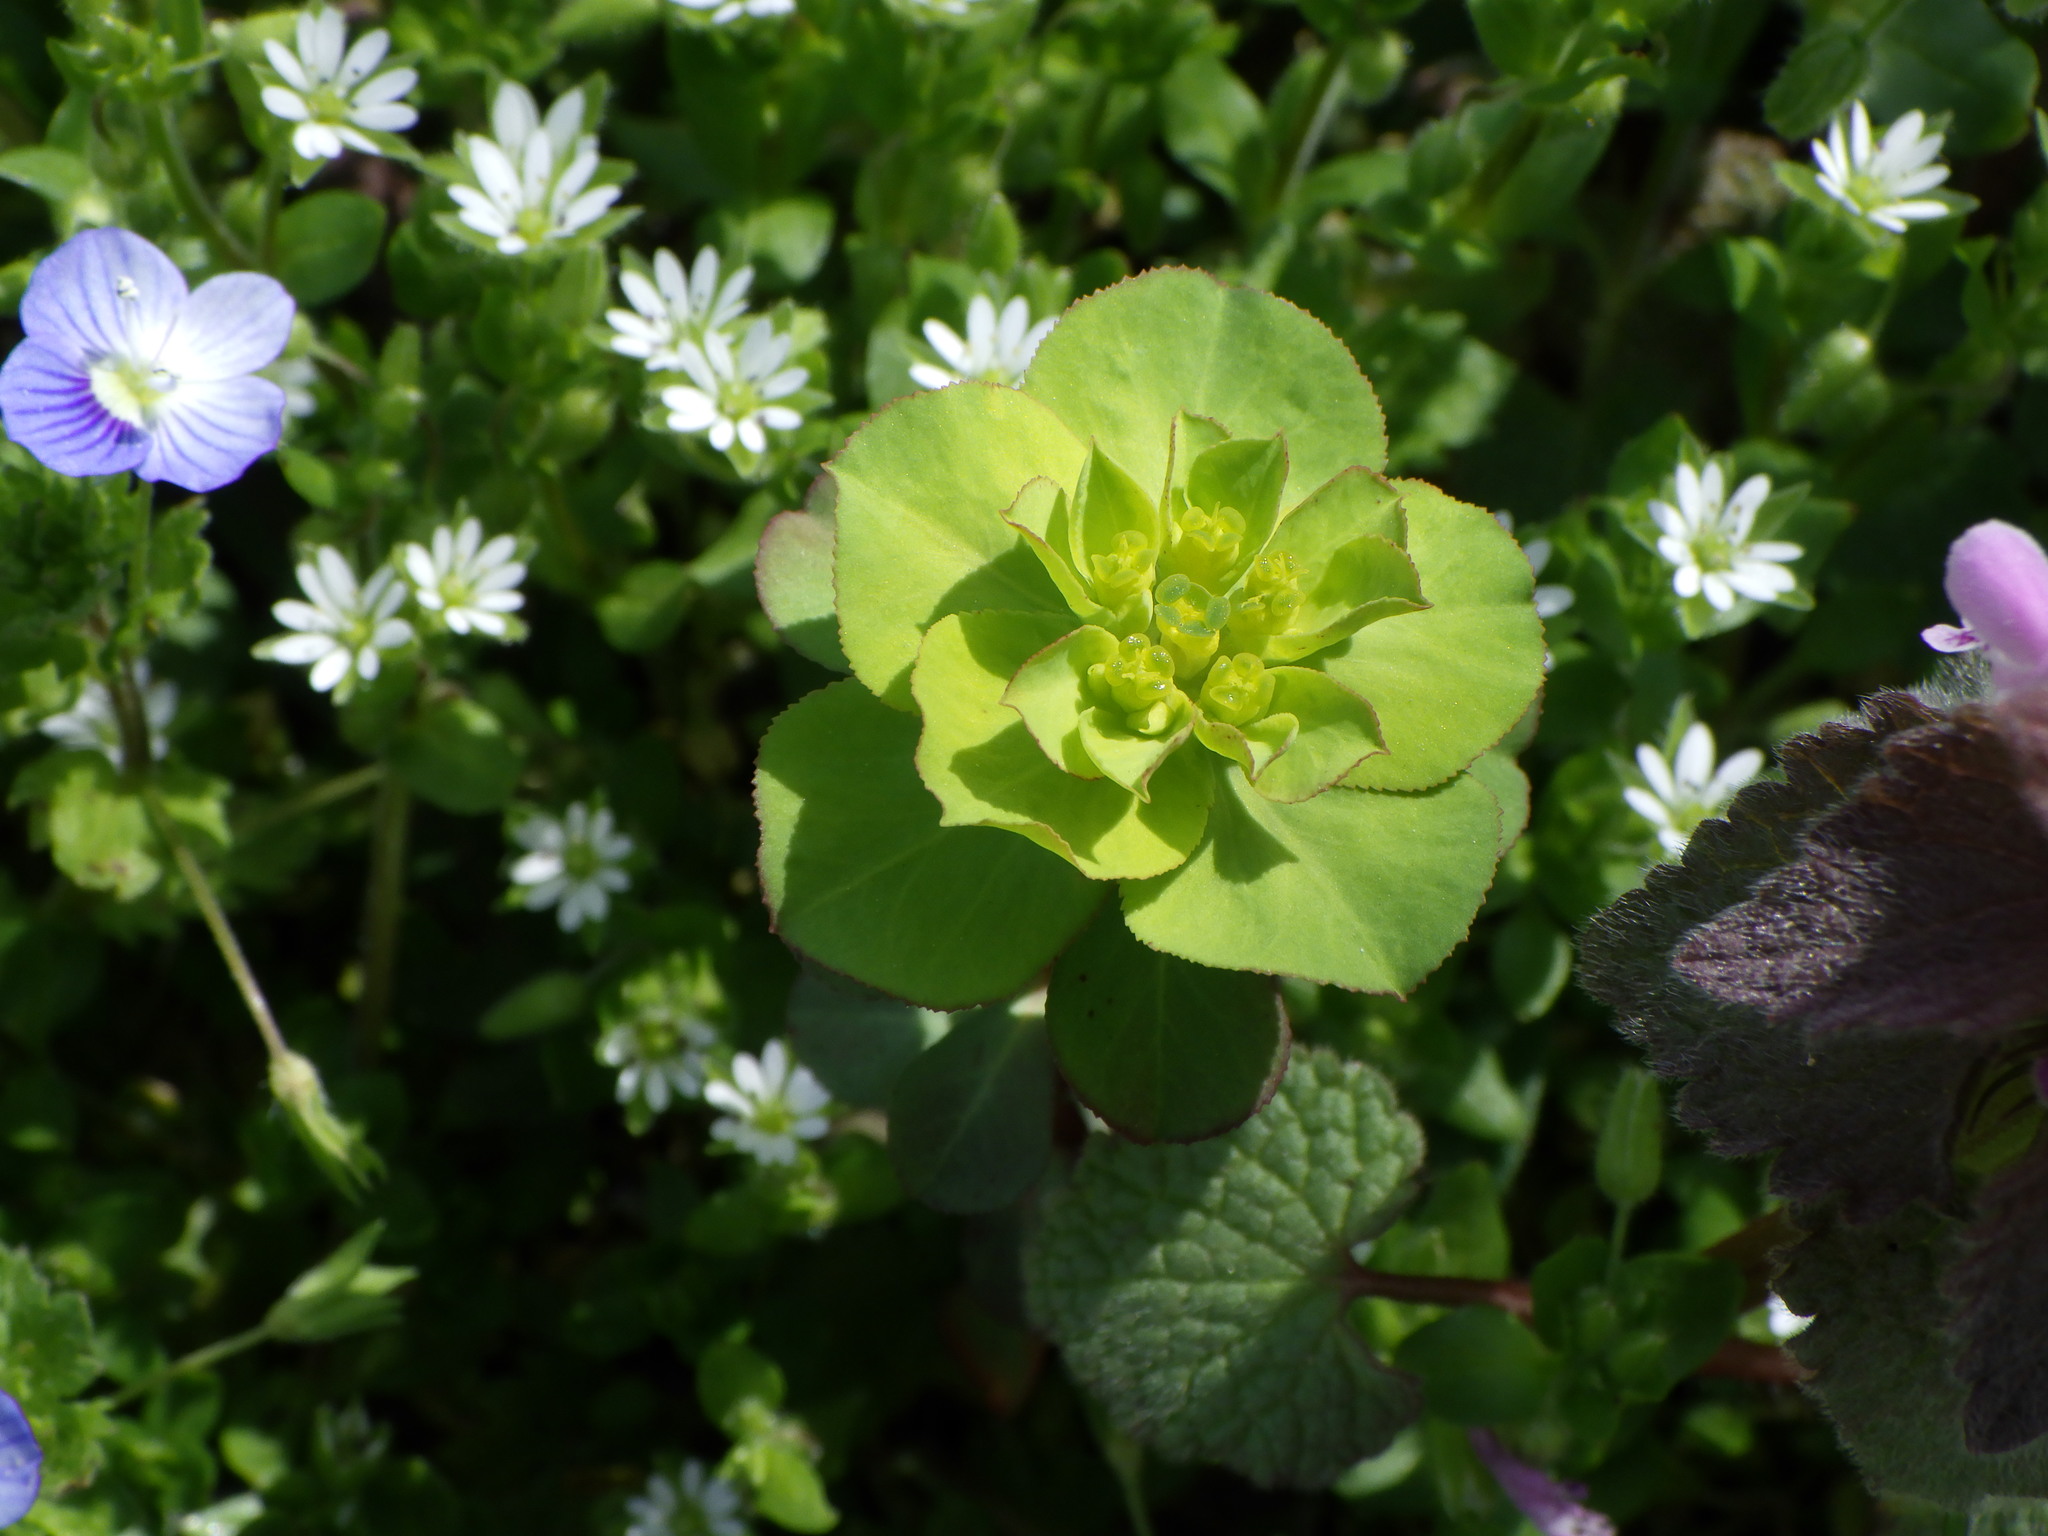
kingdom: Plantae
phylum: Tracheophyta
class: Magnoliopsida
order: Malpighiales
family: Euphorbiaceae
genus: Euphorbia
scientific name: Euphorbia helioscopia
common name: Sun spurge
